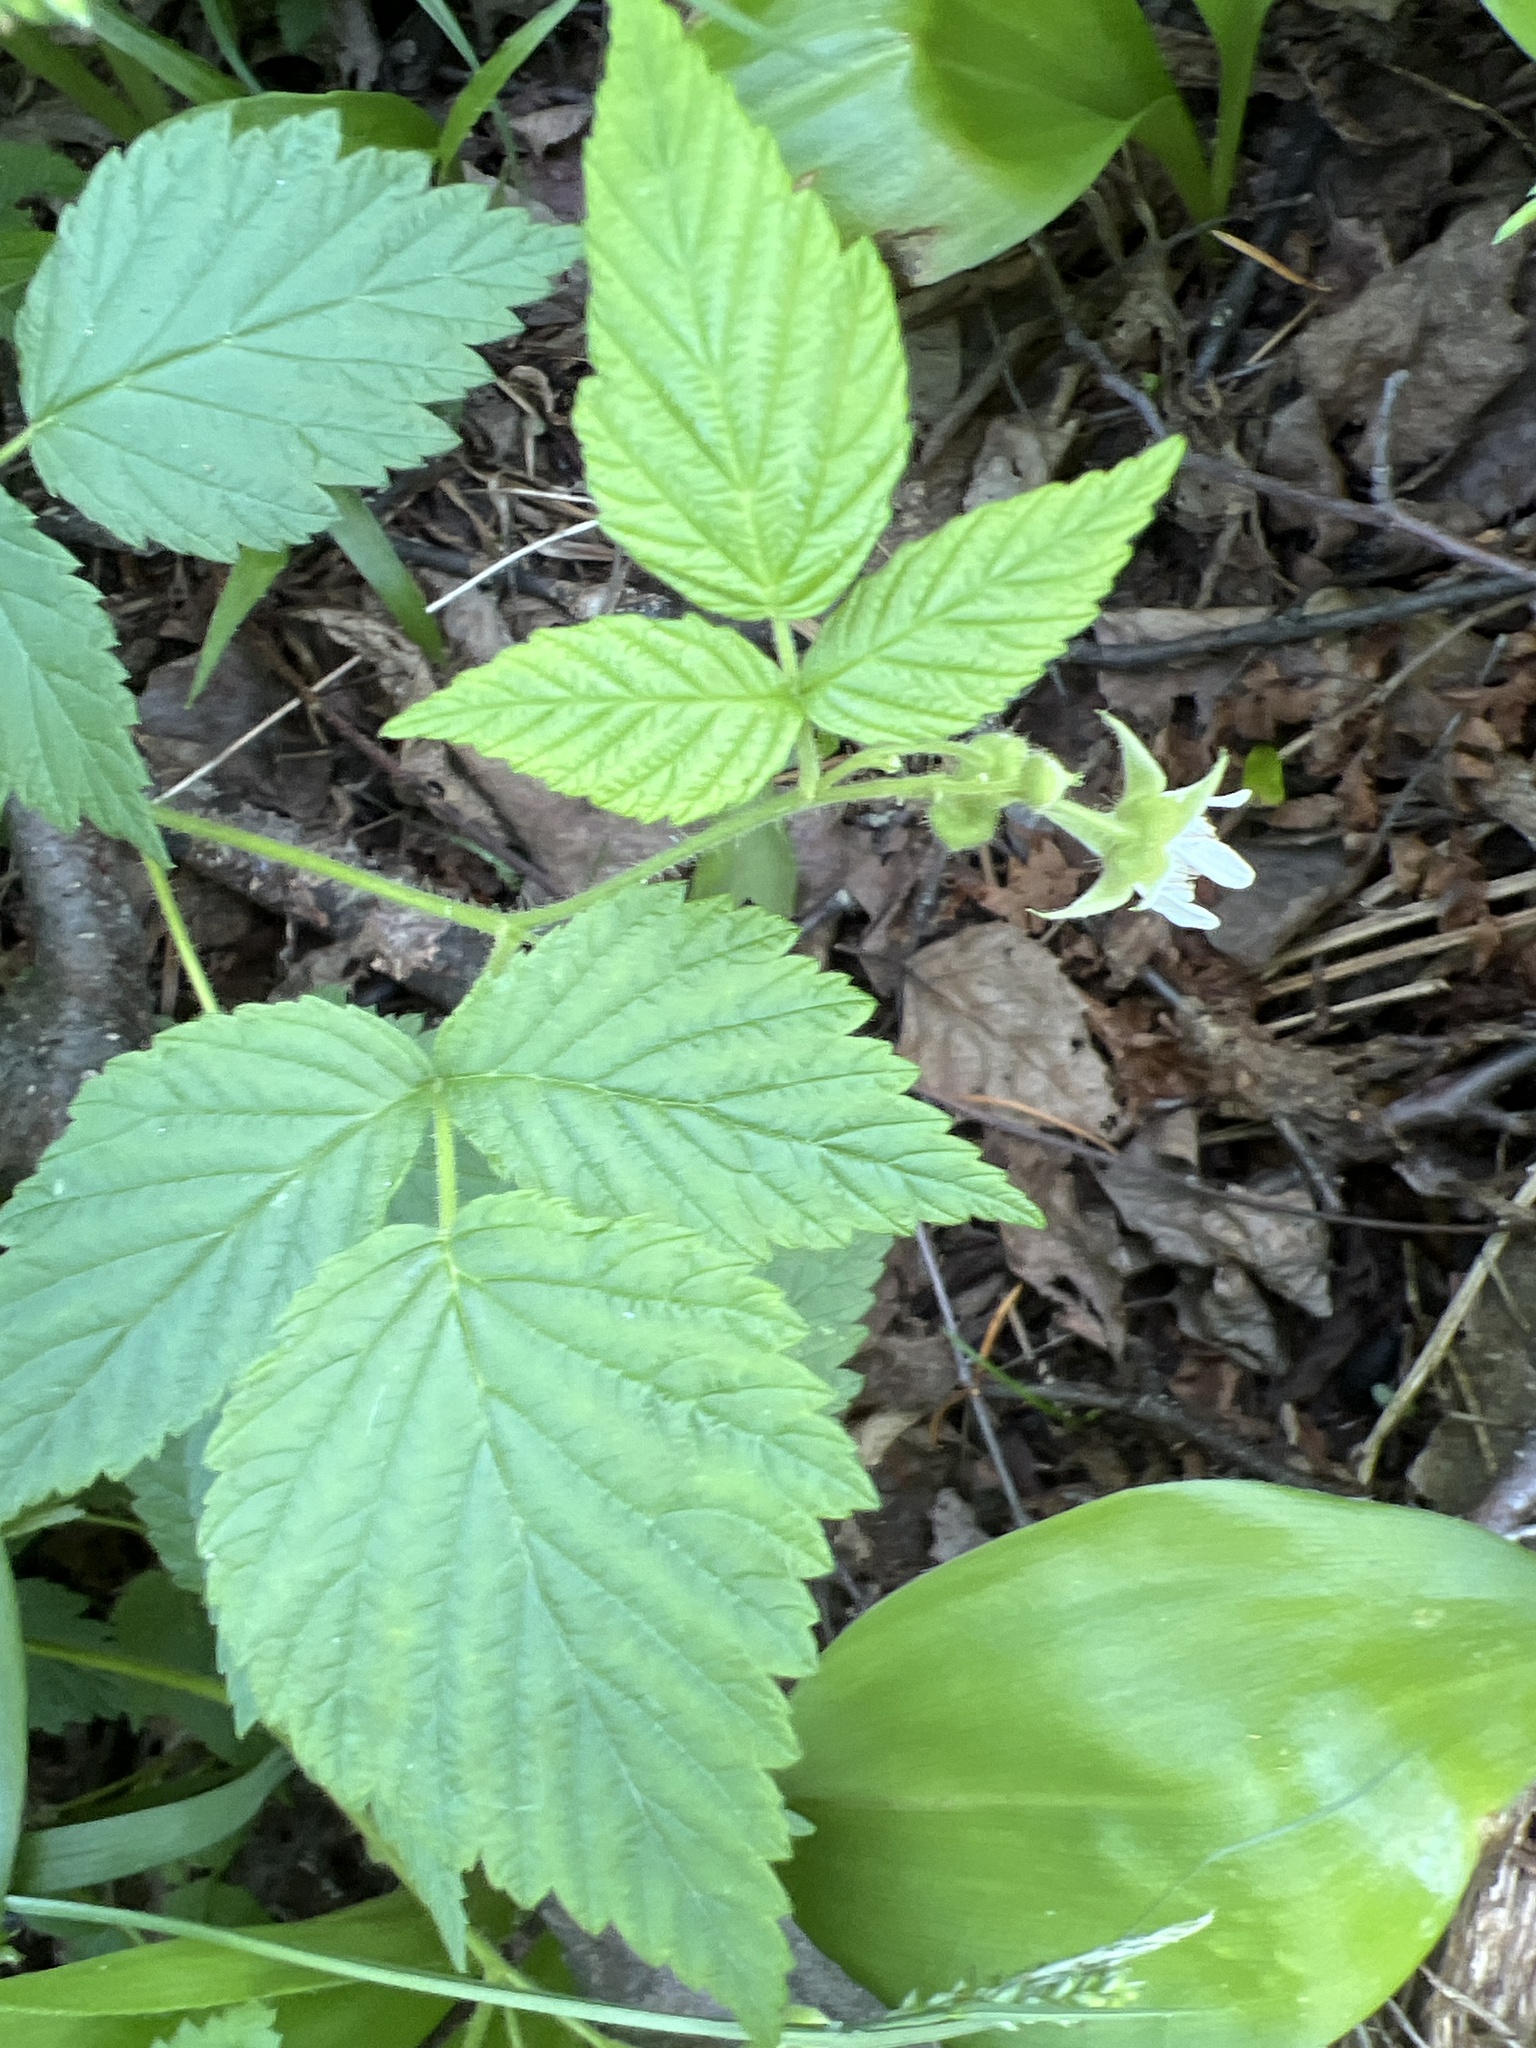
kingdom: Plantae
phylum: Tracheophyta
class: Magnoliopsida
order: Rosales
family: Rosaceae
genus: Rubus
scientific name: Rubus idaeus
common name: Raspberry
